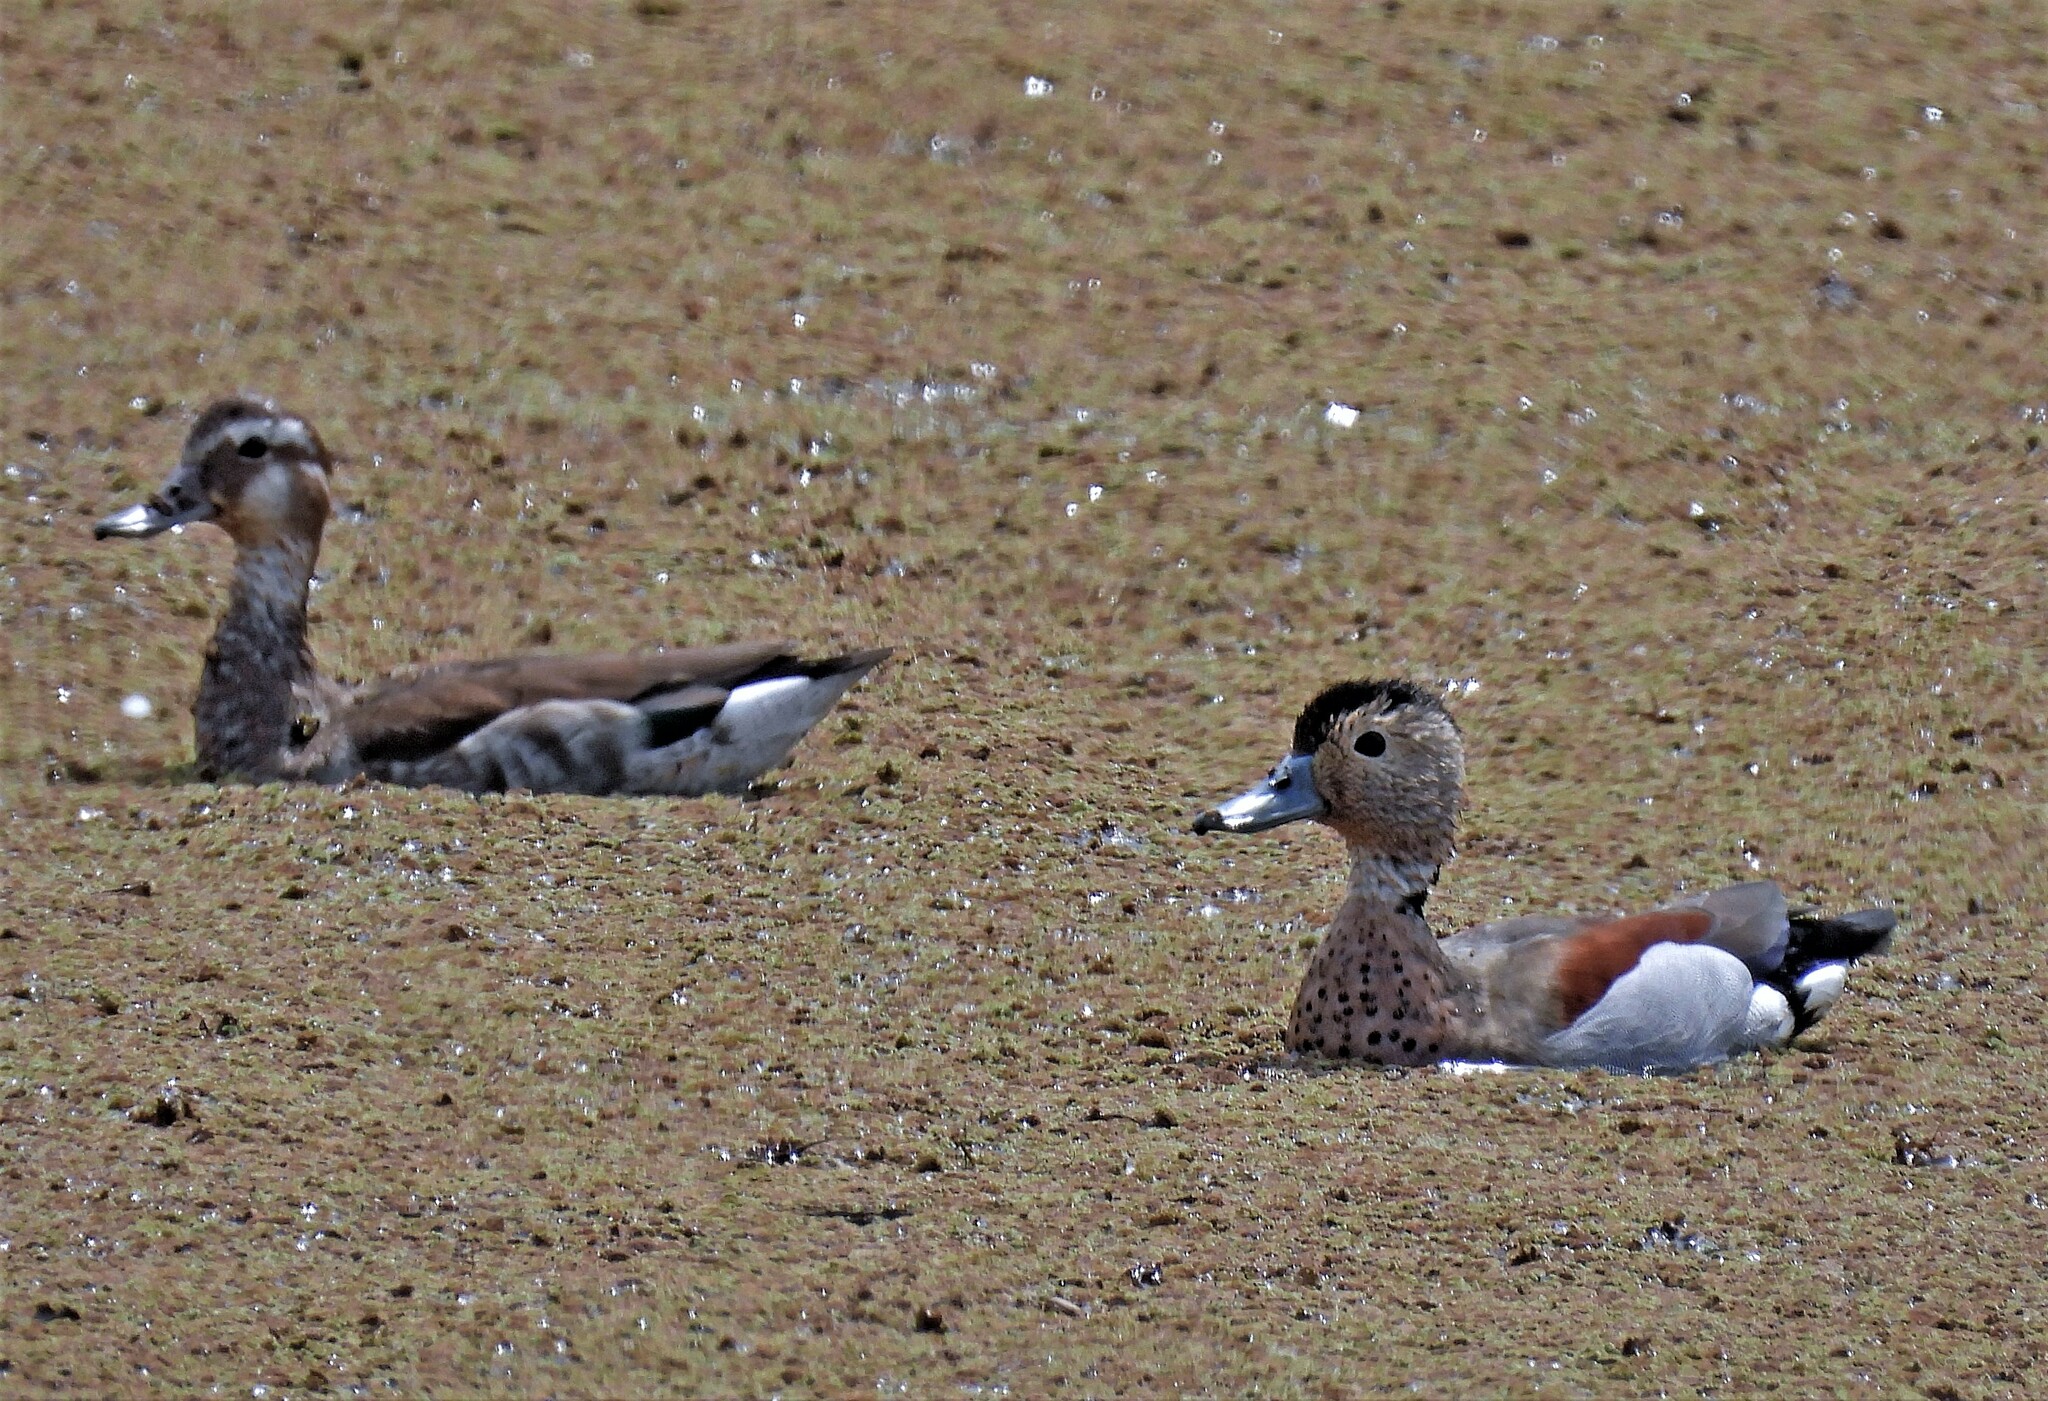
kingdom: Animalia
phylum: Chordata
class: Aves
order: Anseriformes
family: Anatidae
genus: Callonetta
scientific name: Callonetta leucophrys
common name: Ringed teal
